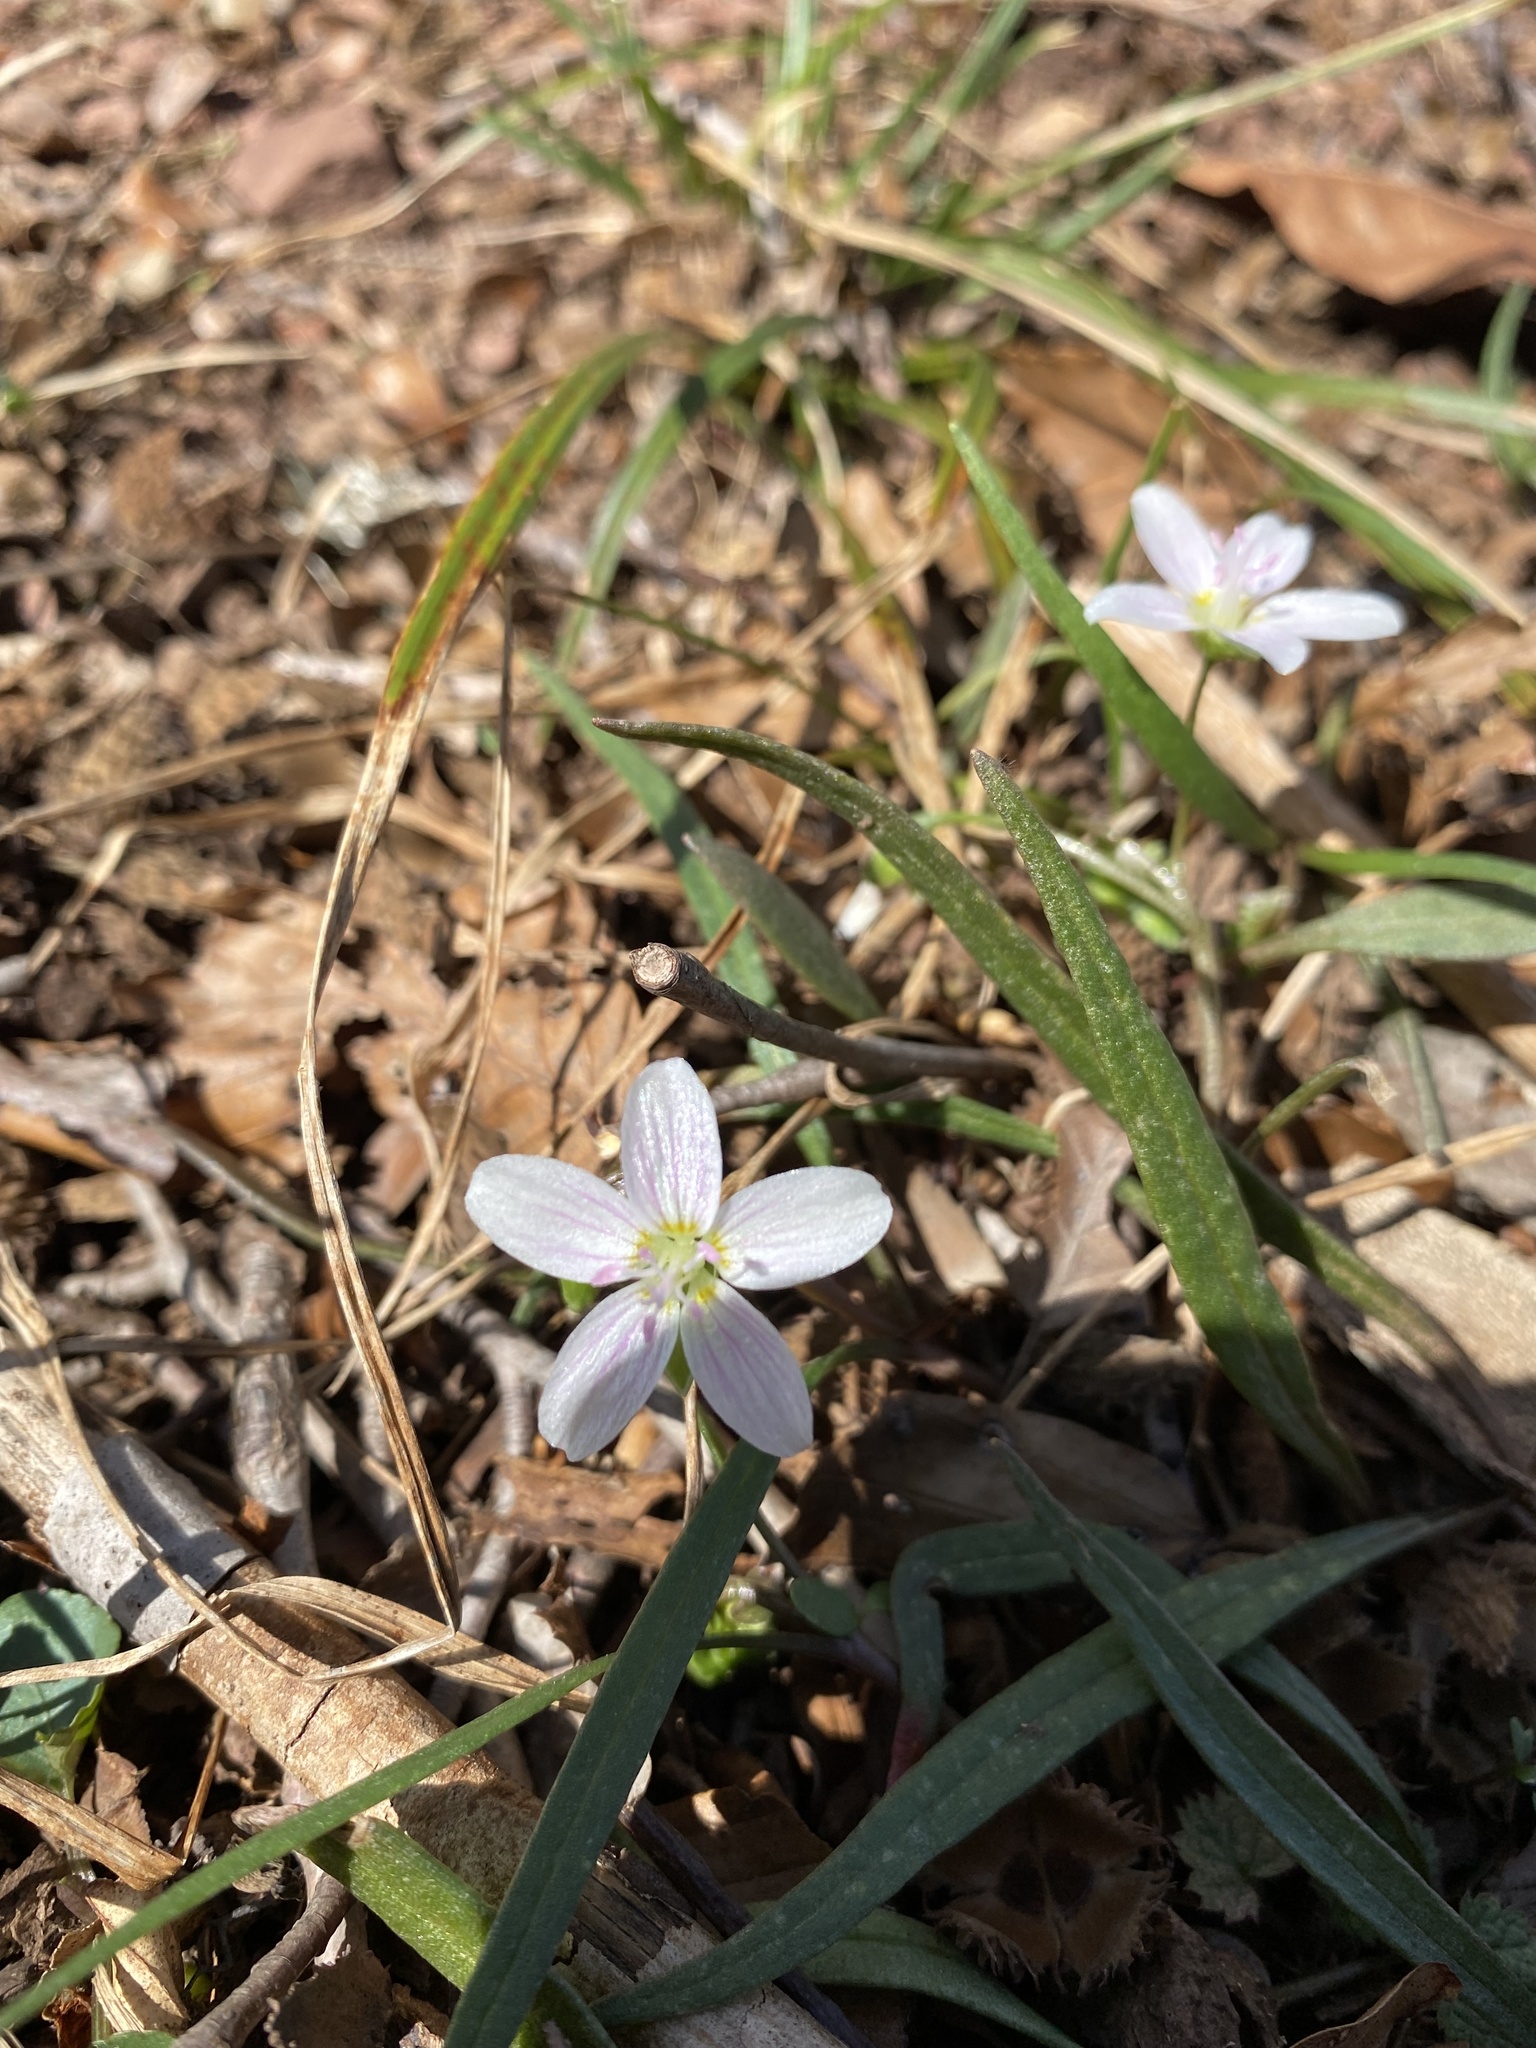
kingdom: Plantae
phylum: Tracheophyta
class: Magnoliopsida
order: Caryophyllales
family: Montiaceae
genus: Claytonia
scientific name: Claytonia virginica
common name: Virginia springbeauty
